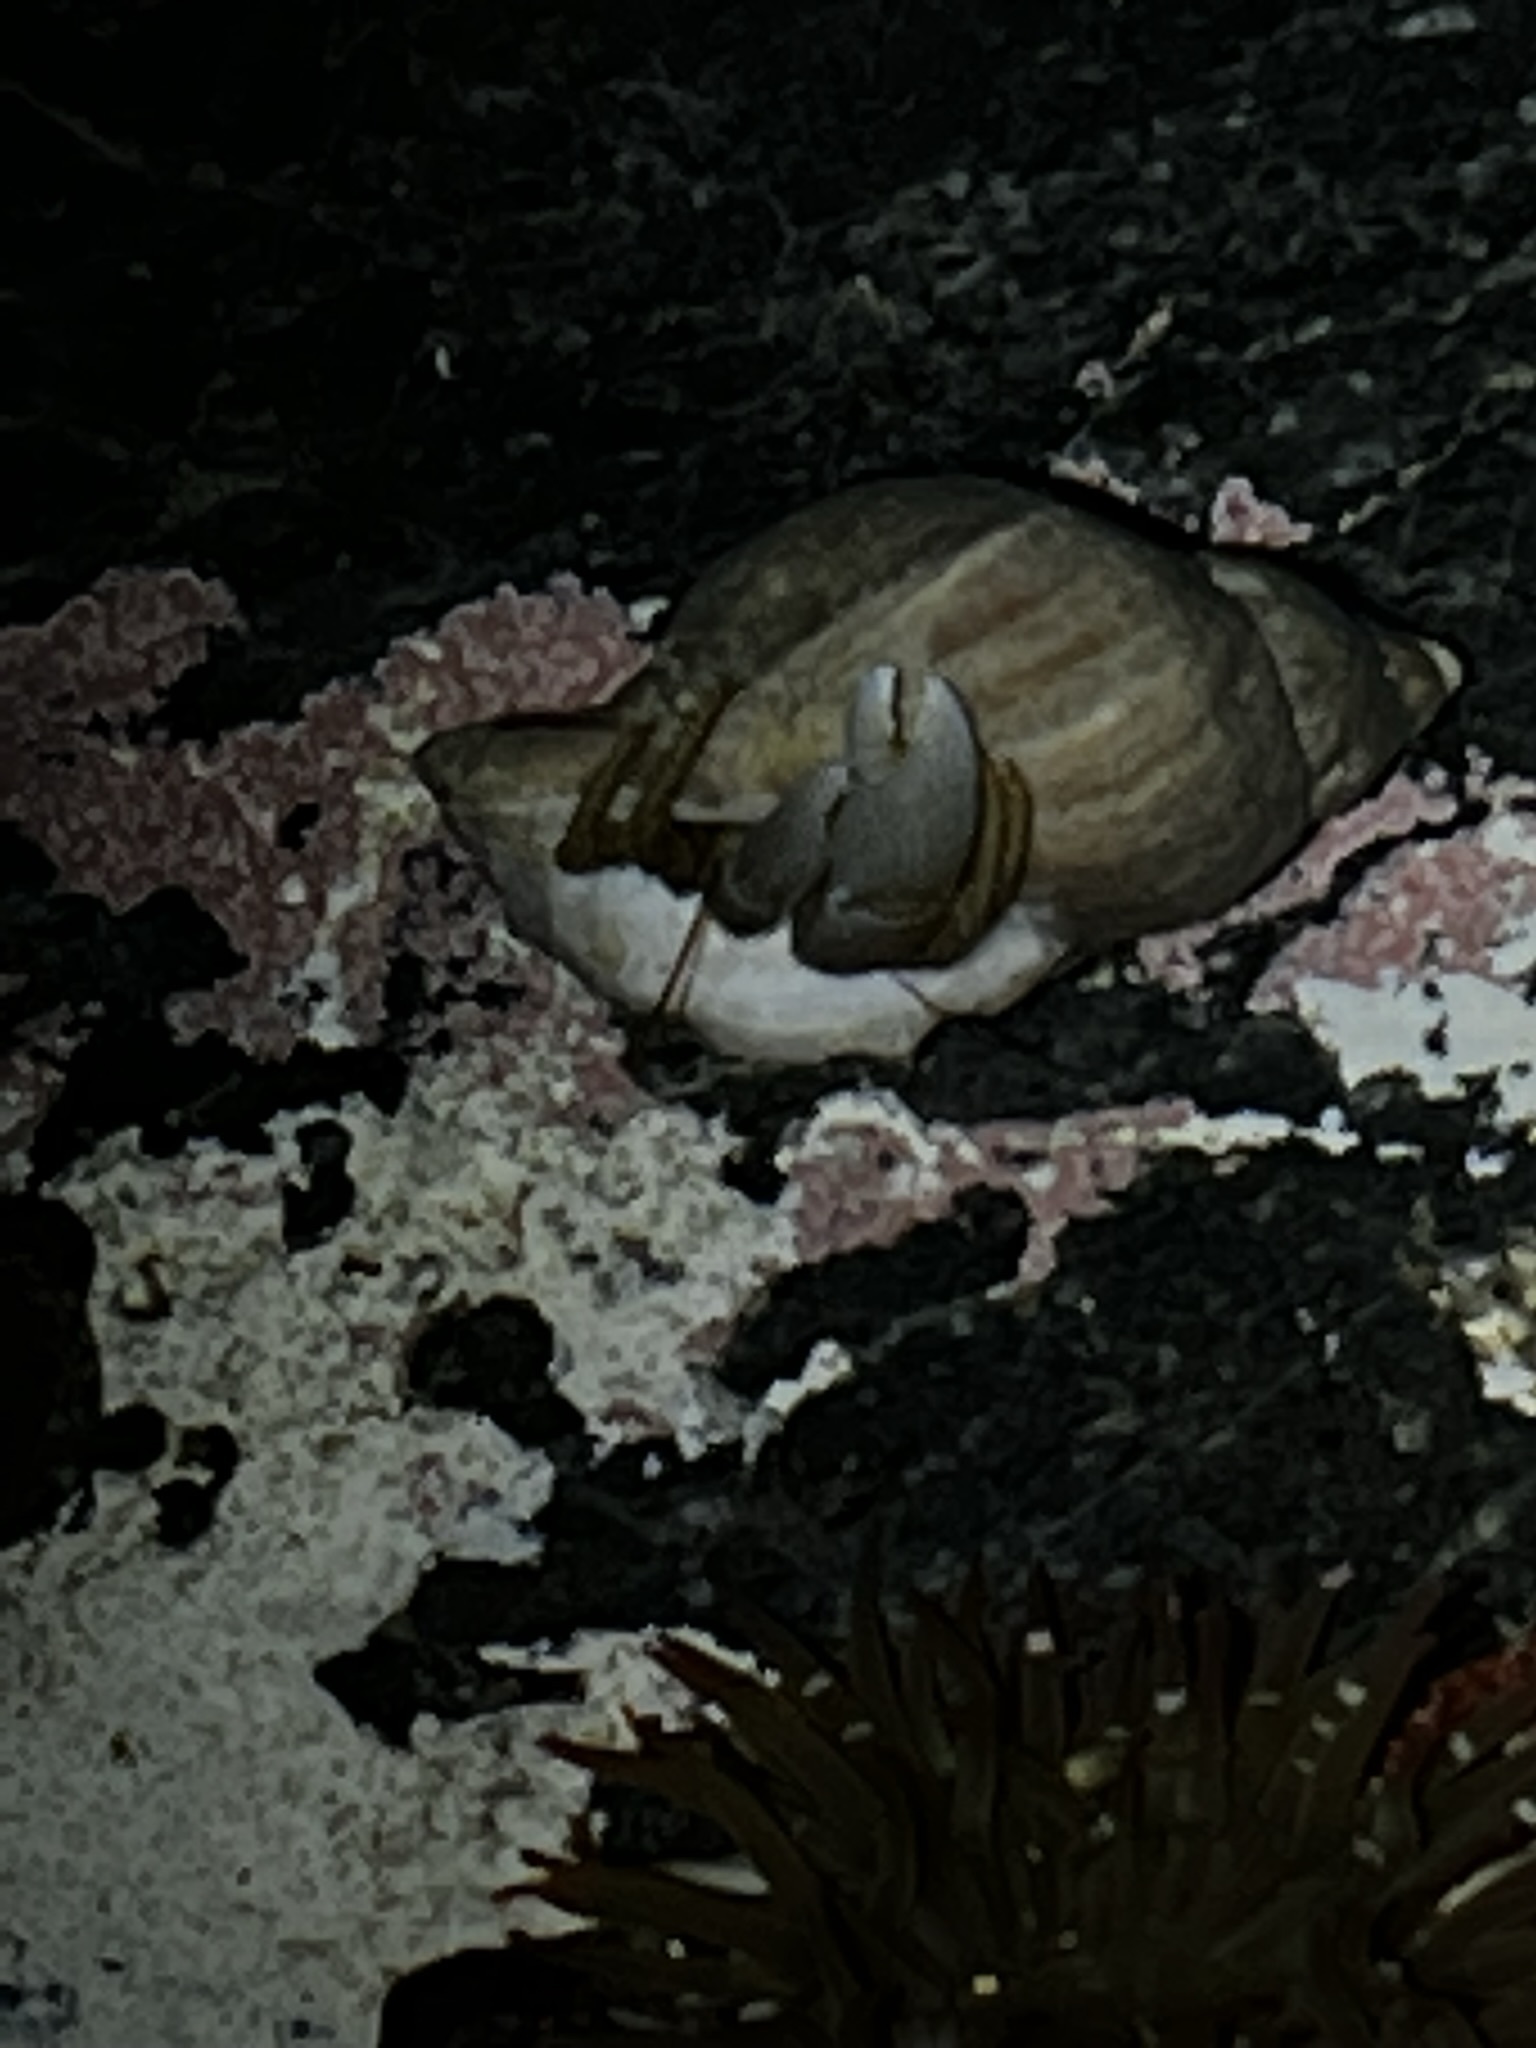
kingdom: Animalia
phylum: Arthropoda
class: Malacostraca
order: Decapoda
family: Paguridae
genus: Pagurus
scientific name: Pagurus granosimanus
